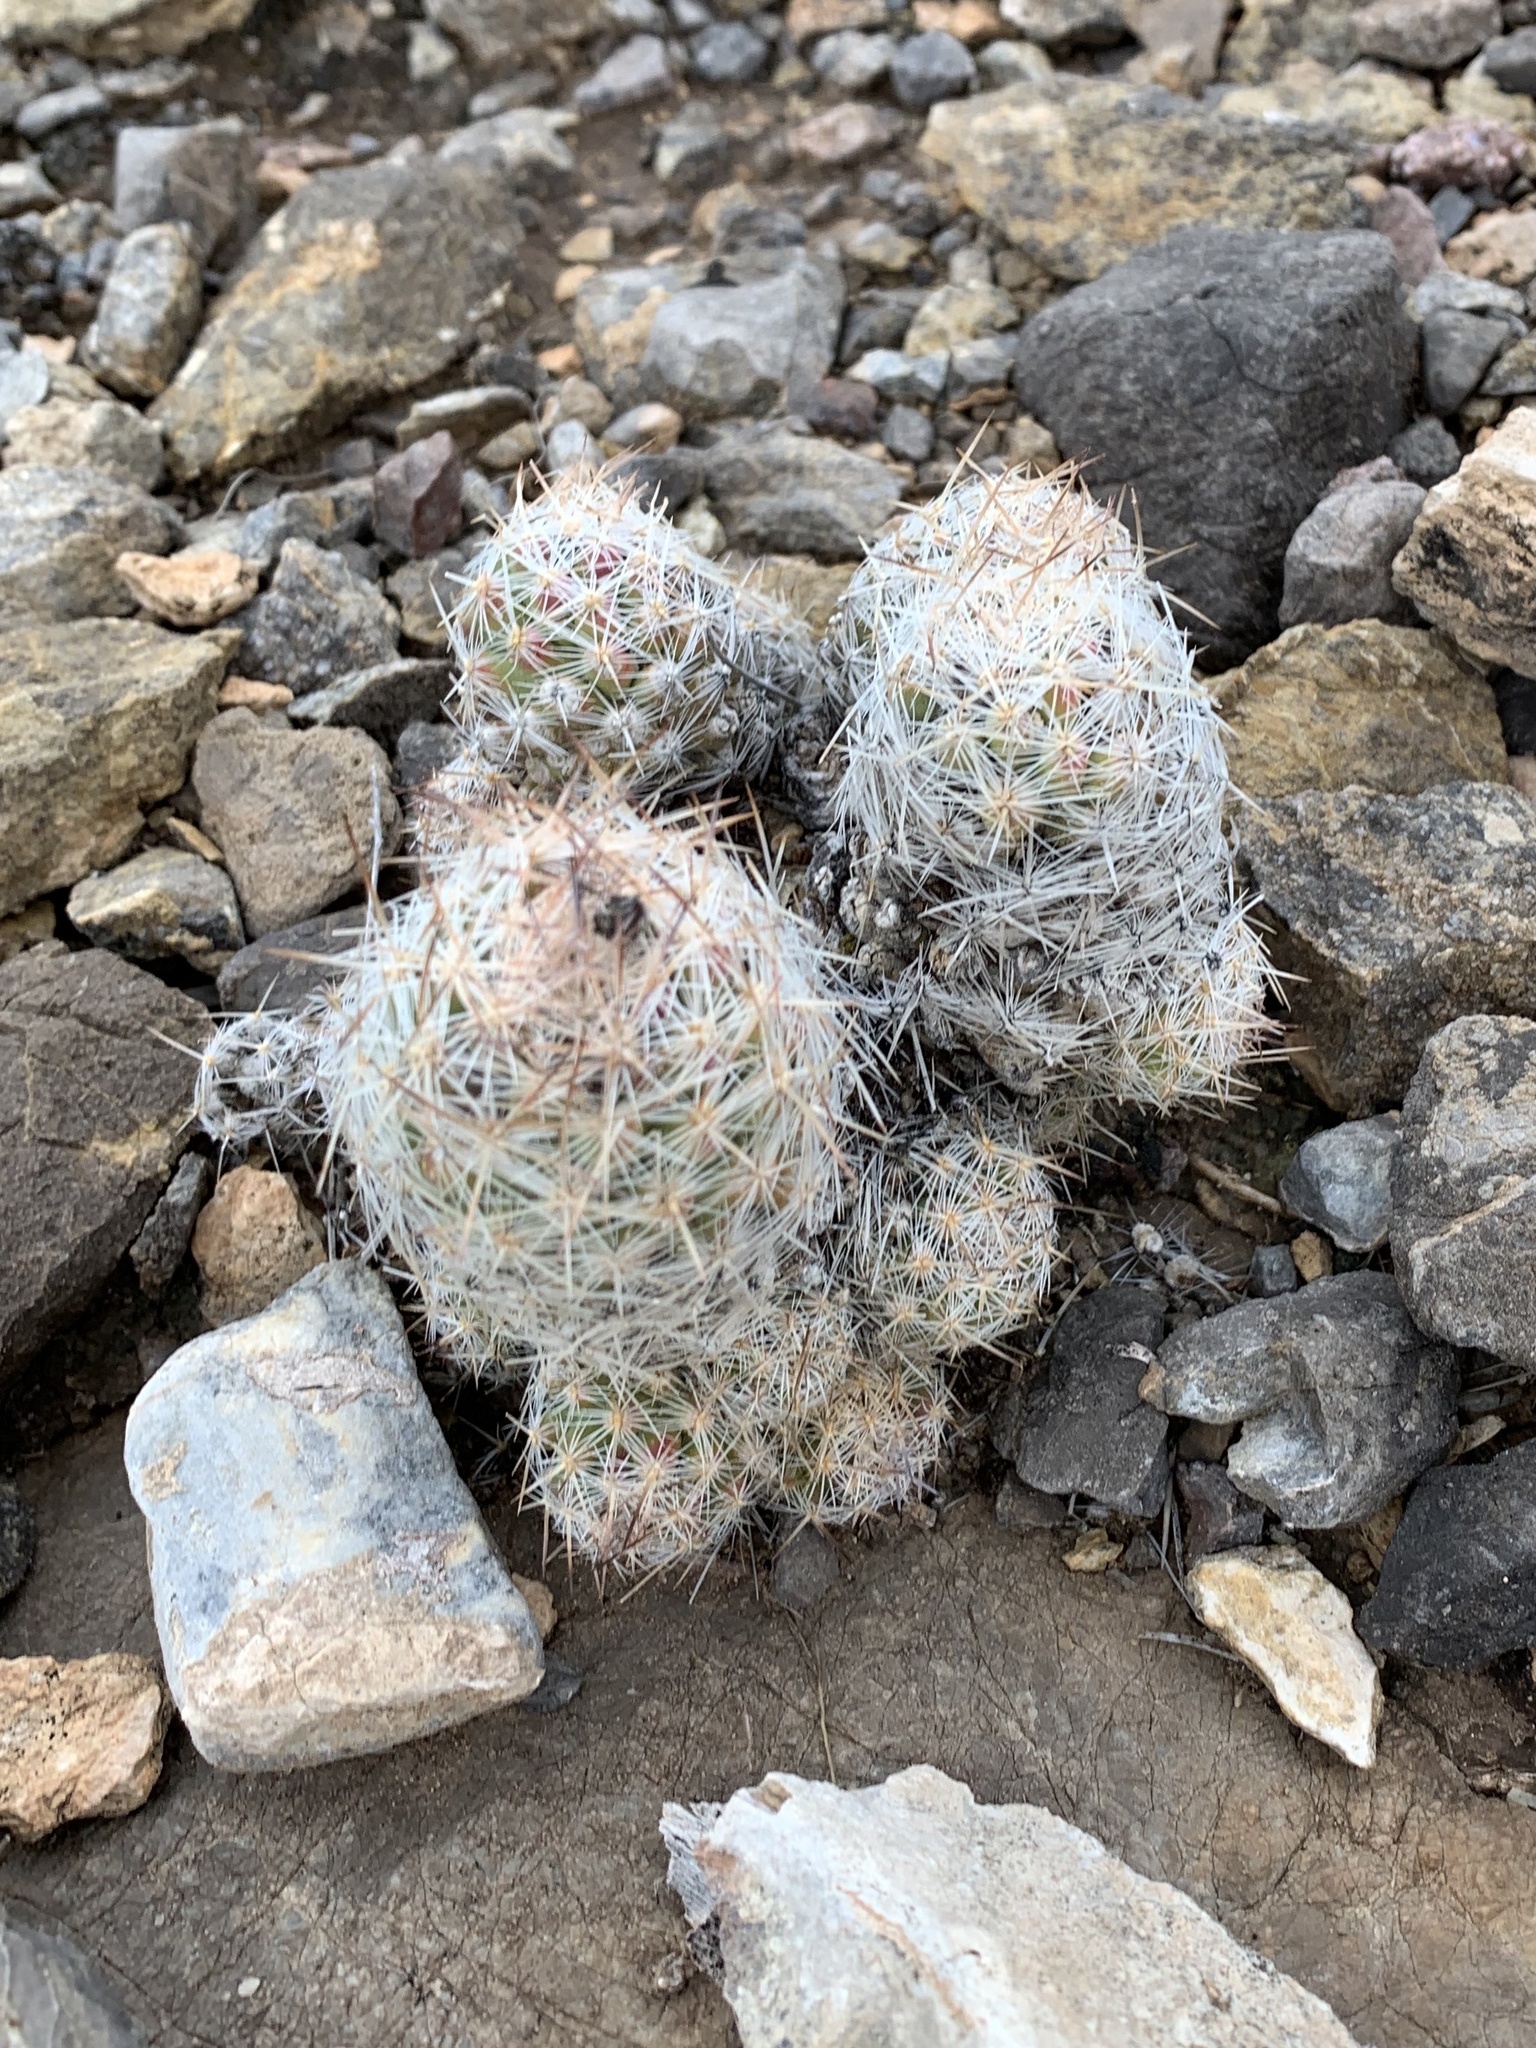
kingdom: Plantae
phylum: Tracheophyta
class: Magnoliopsida
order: Caryophyllales
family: Cactaceae
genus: Pelecyphora
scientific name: Pelecyphora tuberculosa
